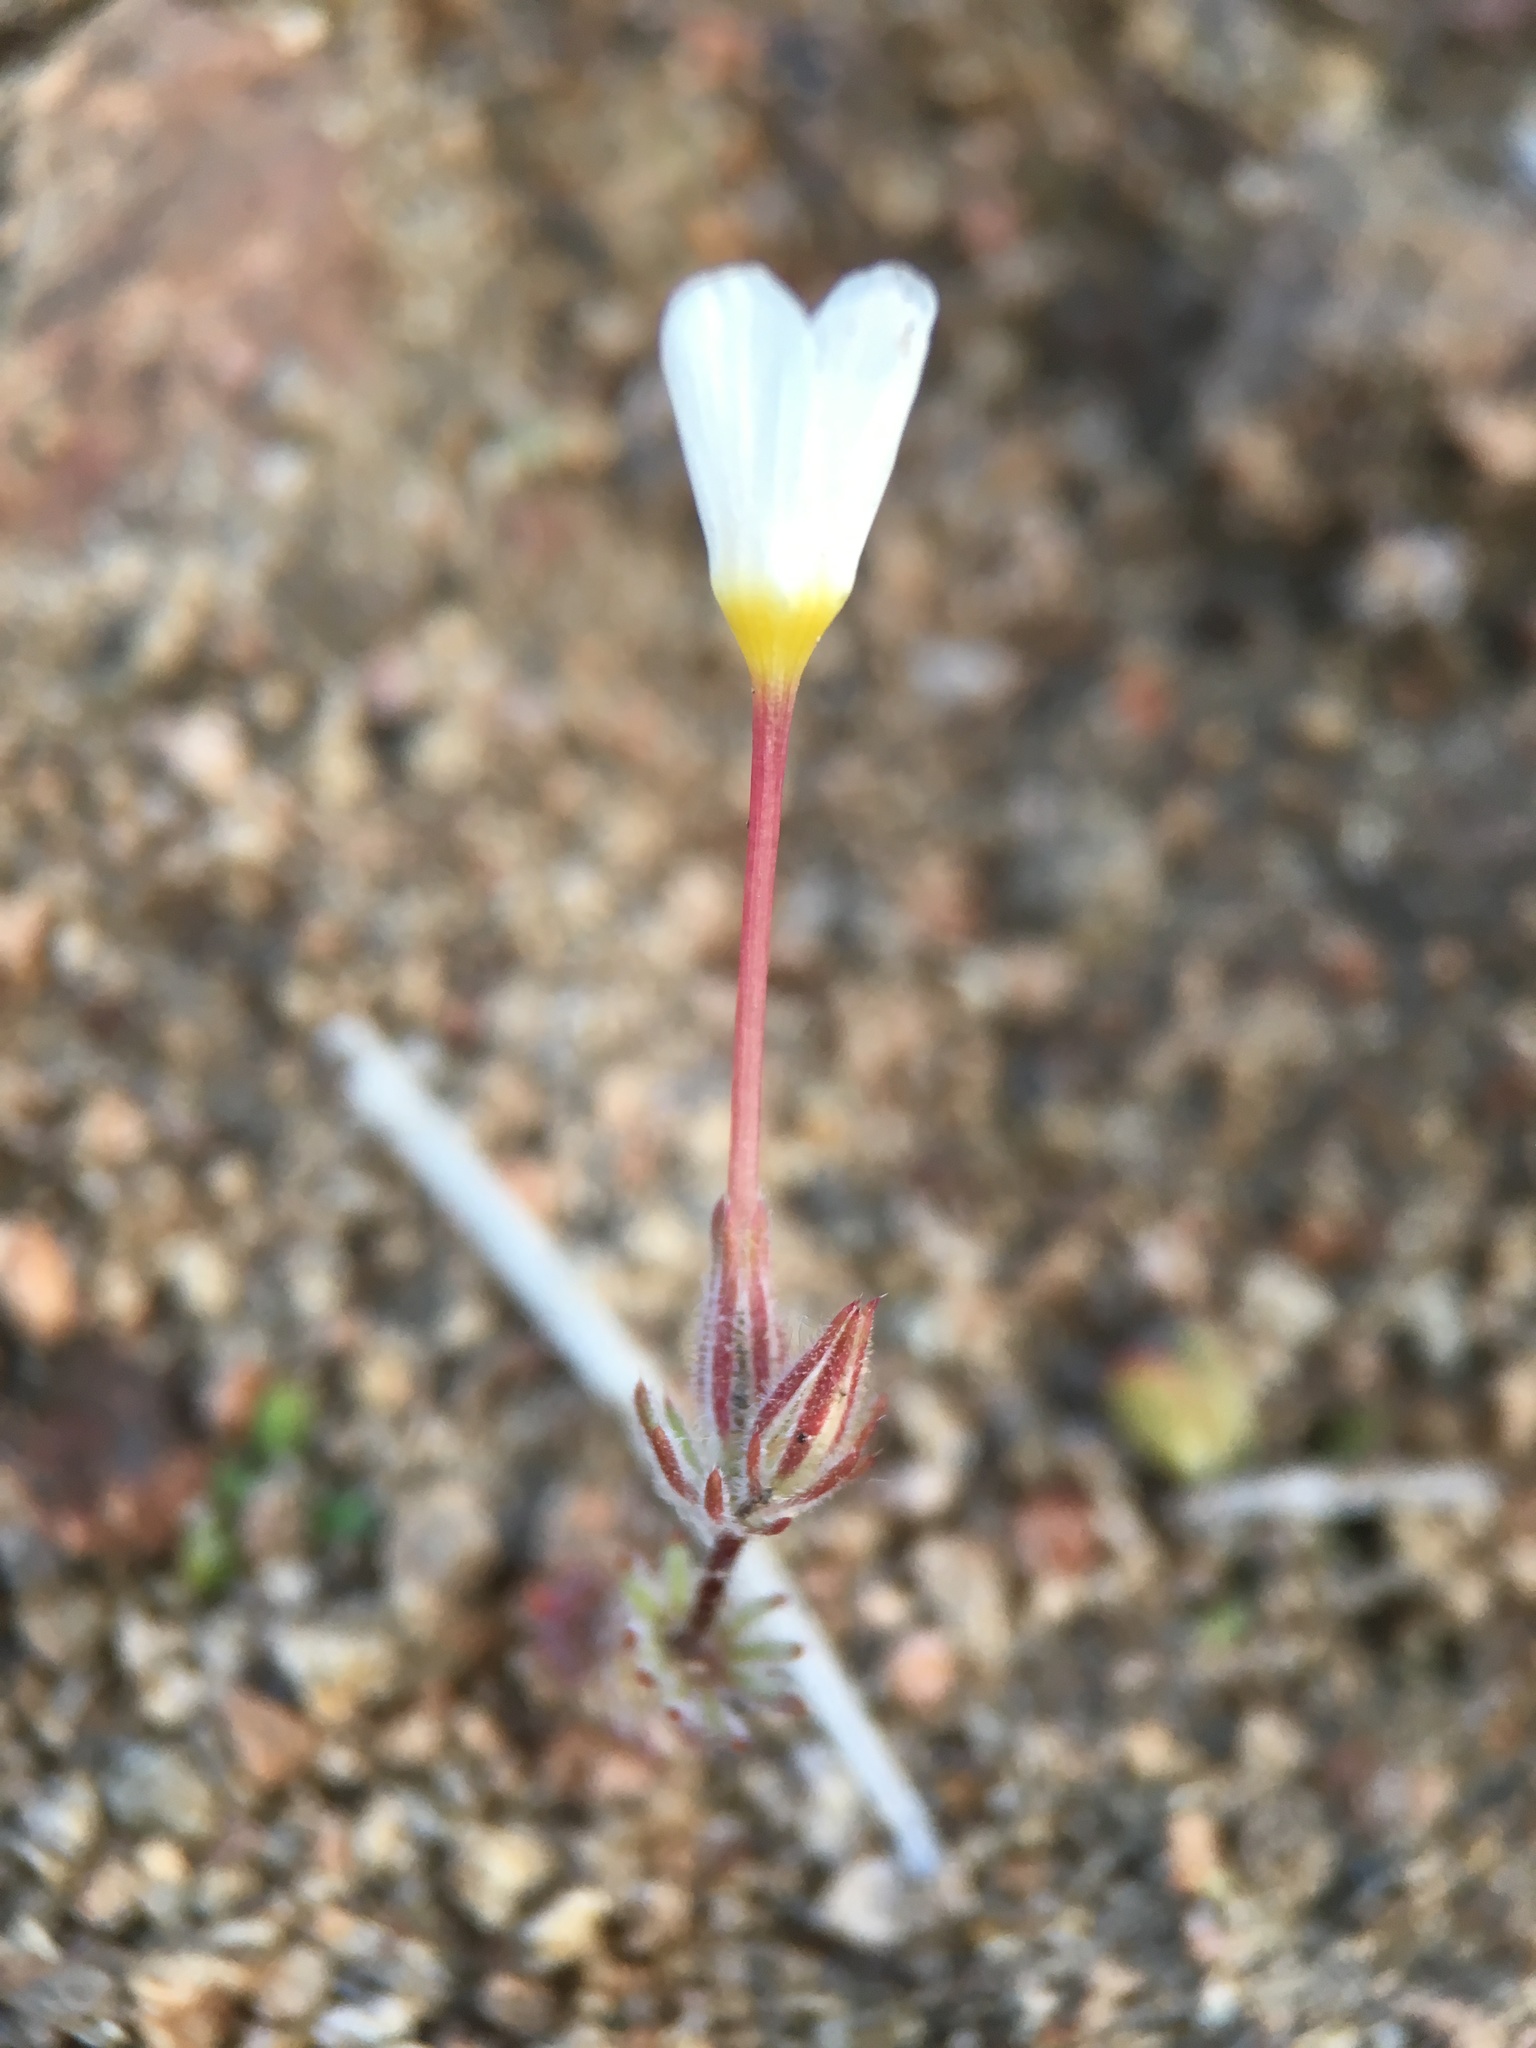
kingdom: Plantae
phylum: Tracheophyta
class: Magnoliopsida
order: Ericales
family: Polemoniaceae
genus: Leptosiphon
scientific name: Leptosiphon breviculus
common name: Mojave linanthus
